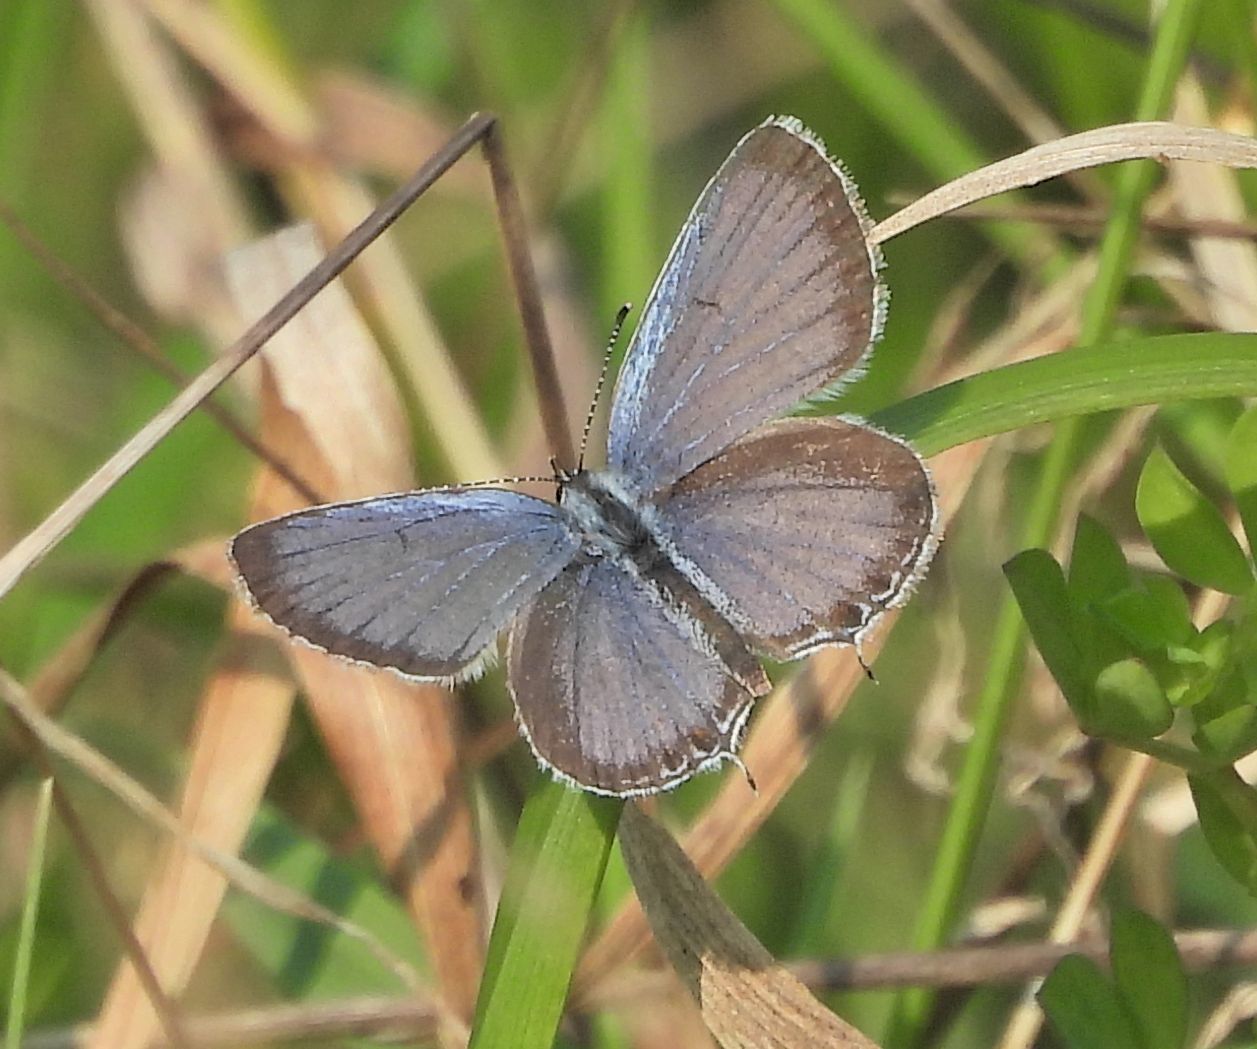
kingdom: Animalia
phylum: Arthropoda
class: Insecta
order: Lepidoptera
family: Lycaenidae
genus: Elkalyce
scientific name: Elkalyce comyntas
